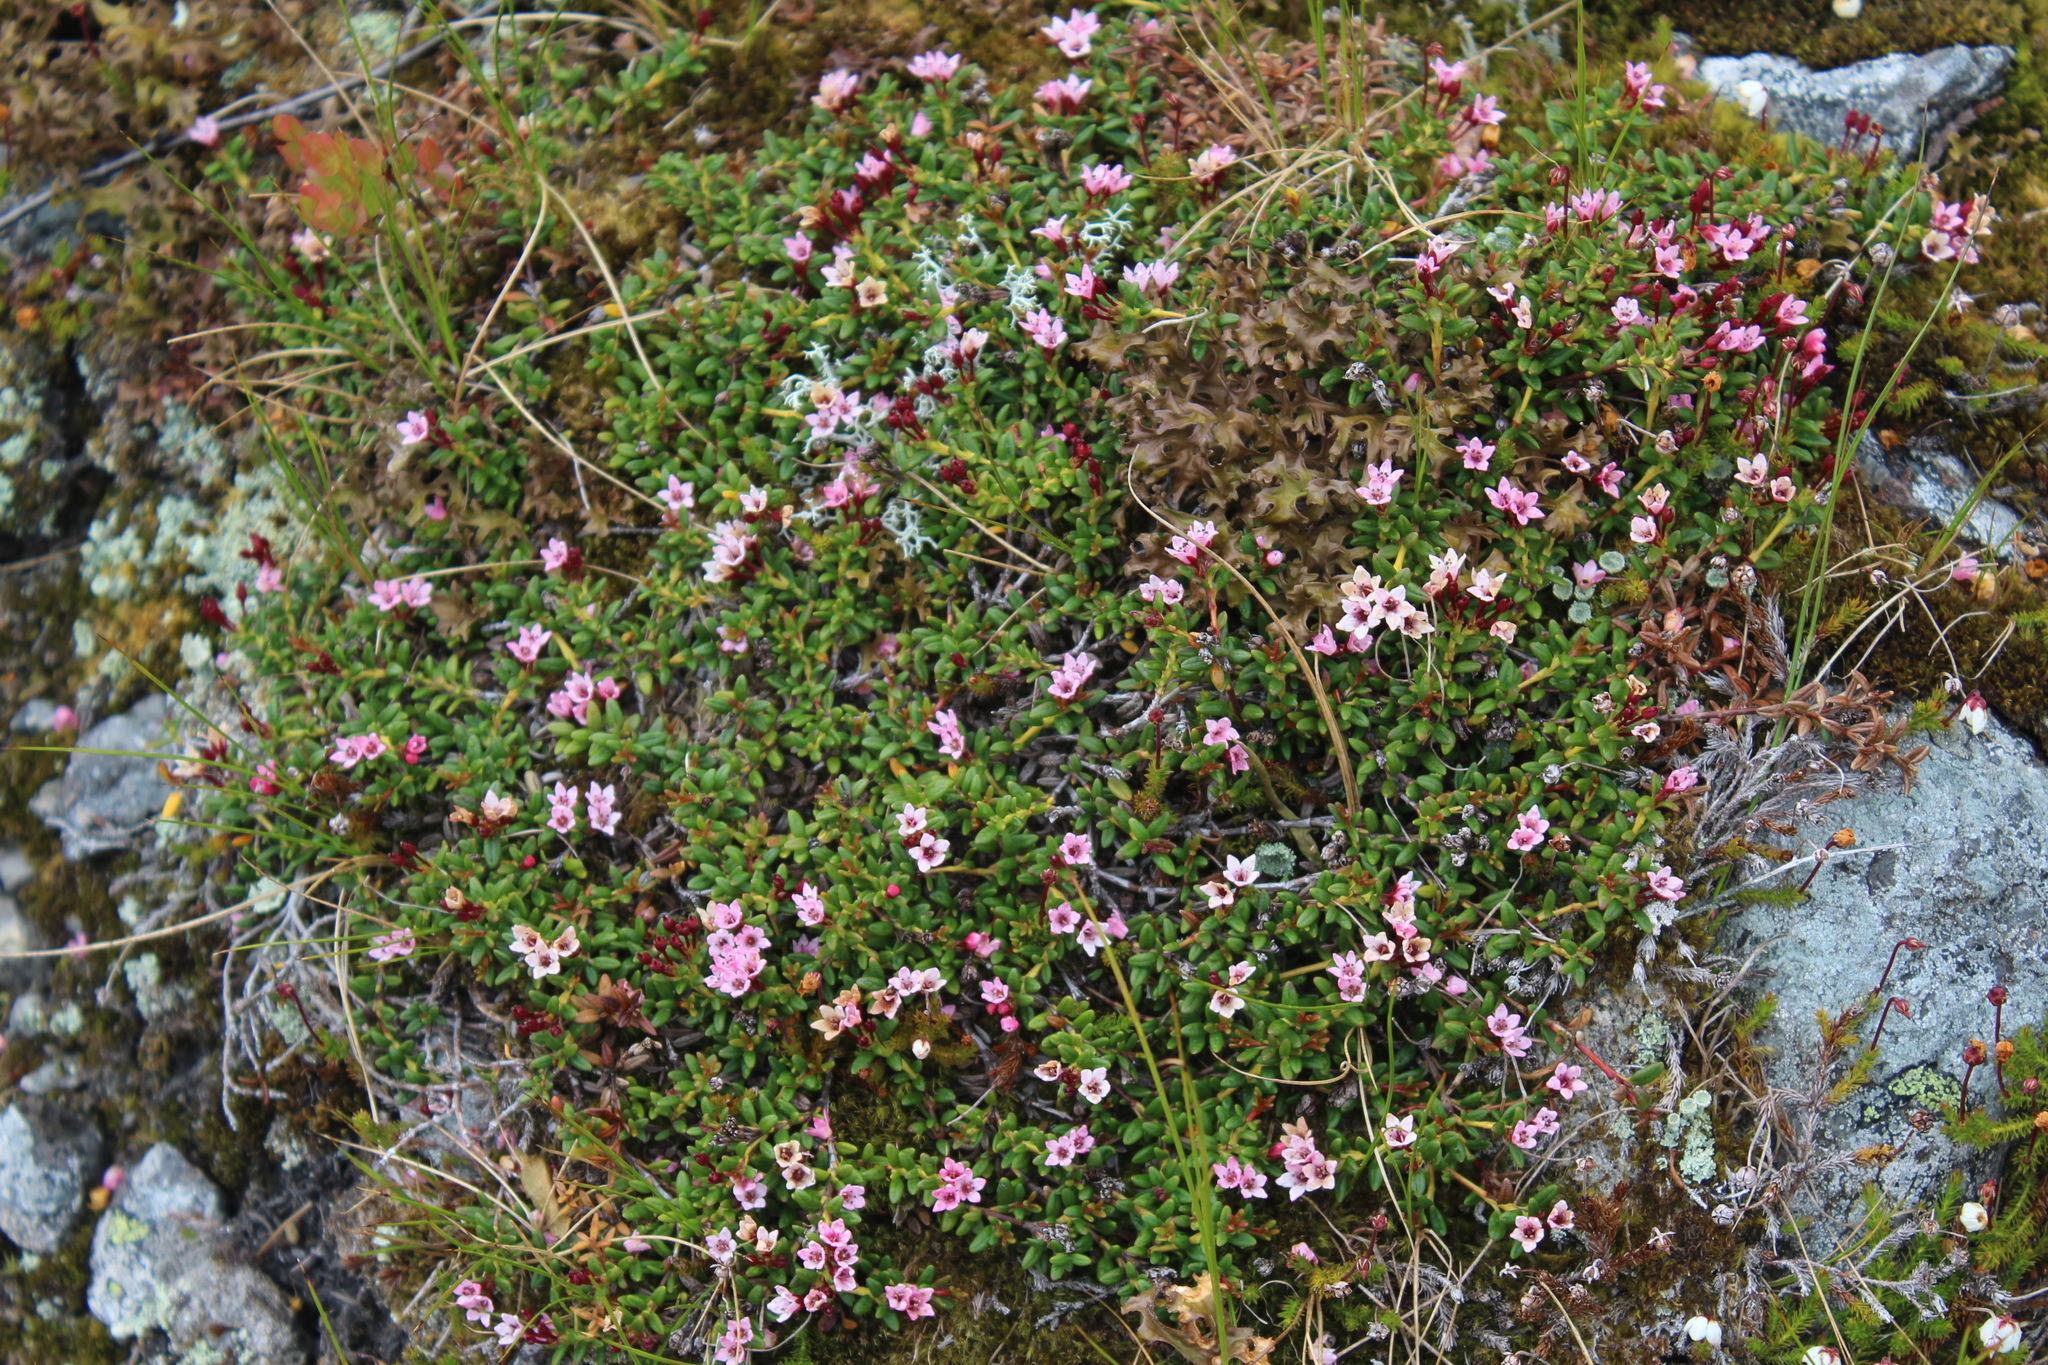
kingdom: Plantae
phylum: Tracheophyta
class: Magnoliopsida
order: Ericales
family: Ericaceae
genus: Kalmia
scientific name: Kalmia procumbens
